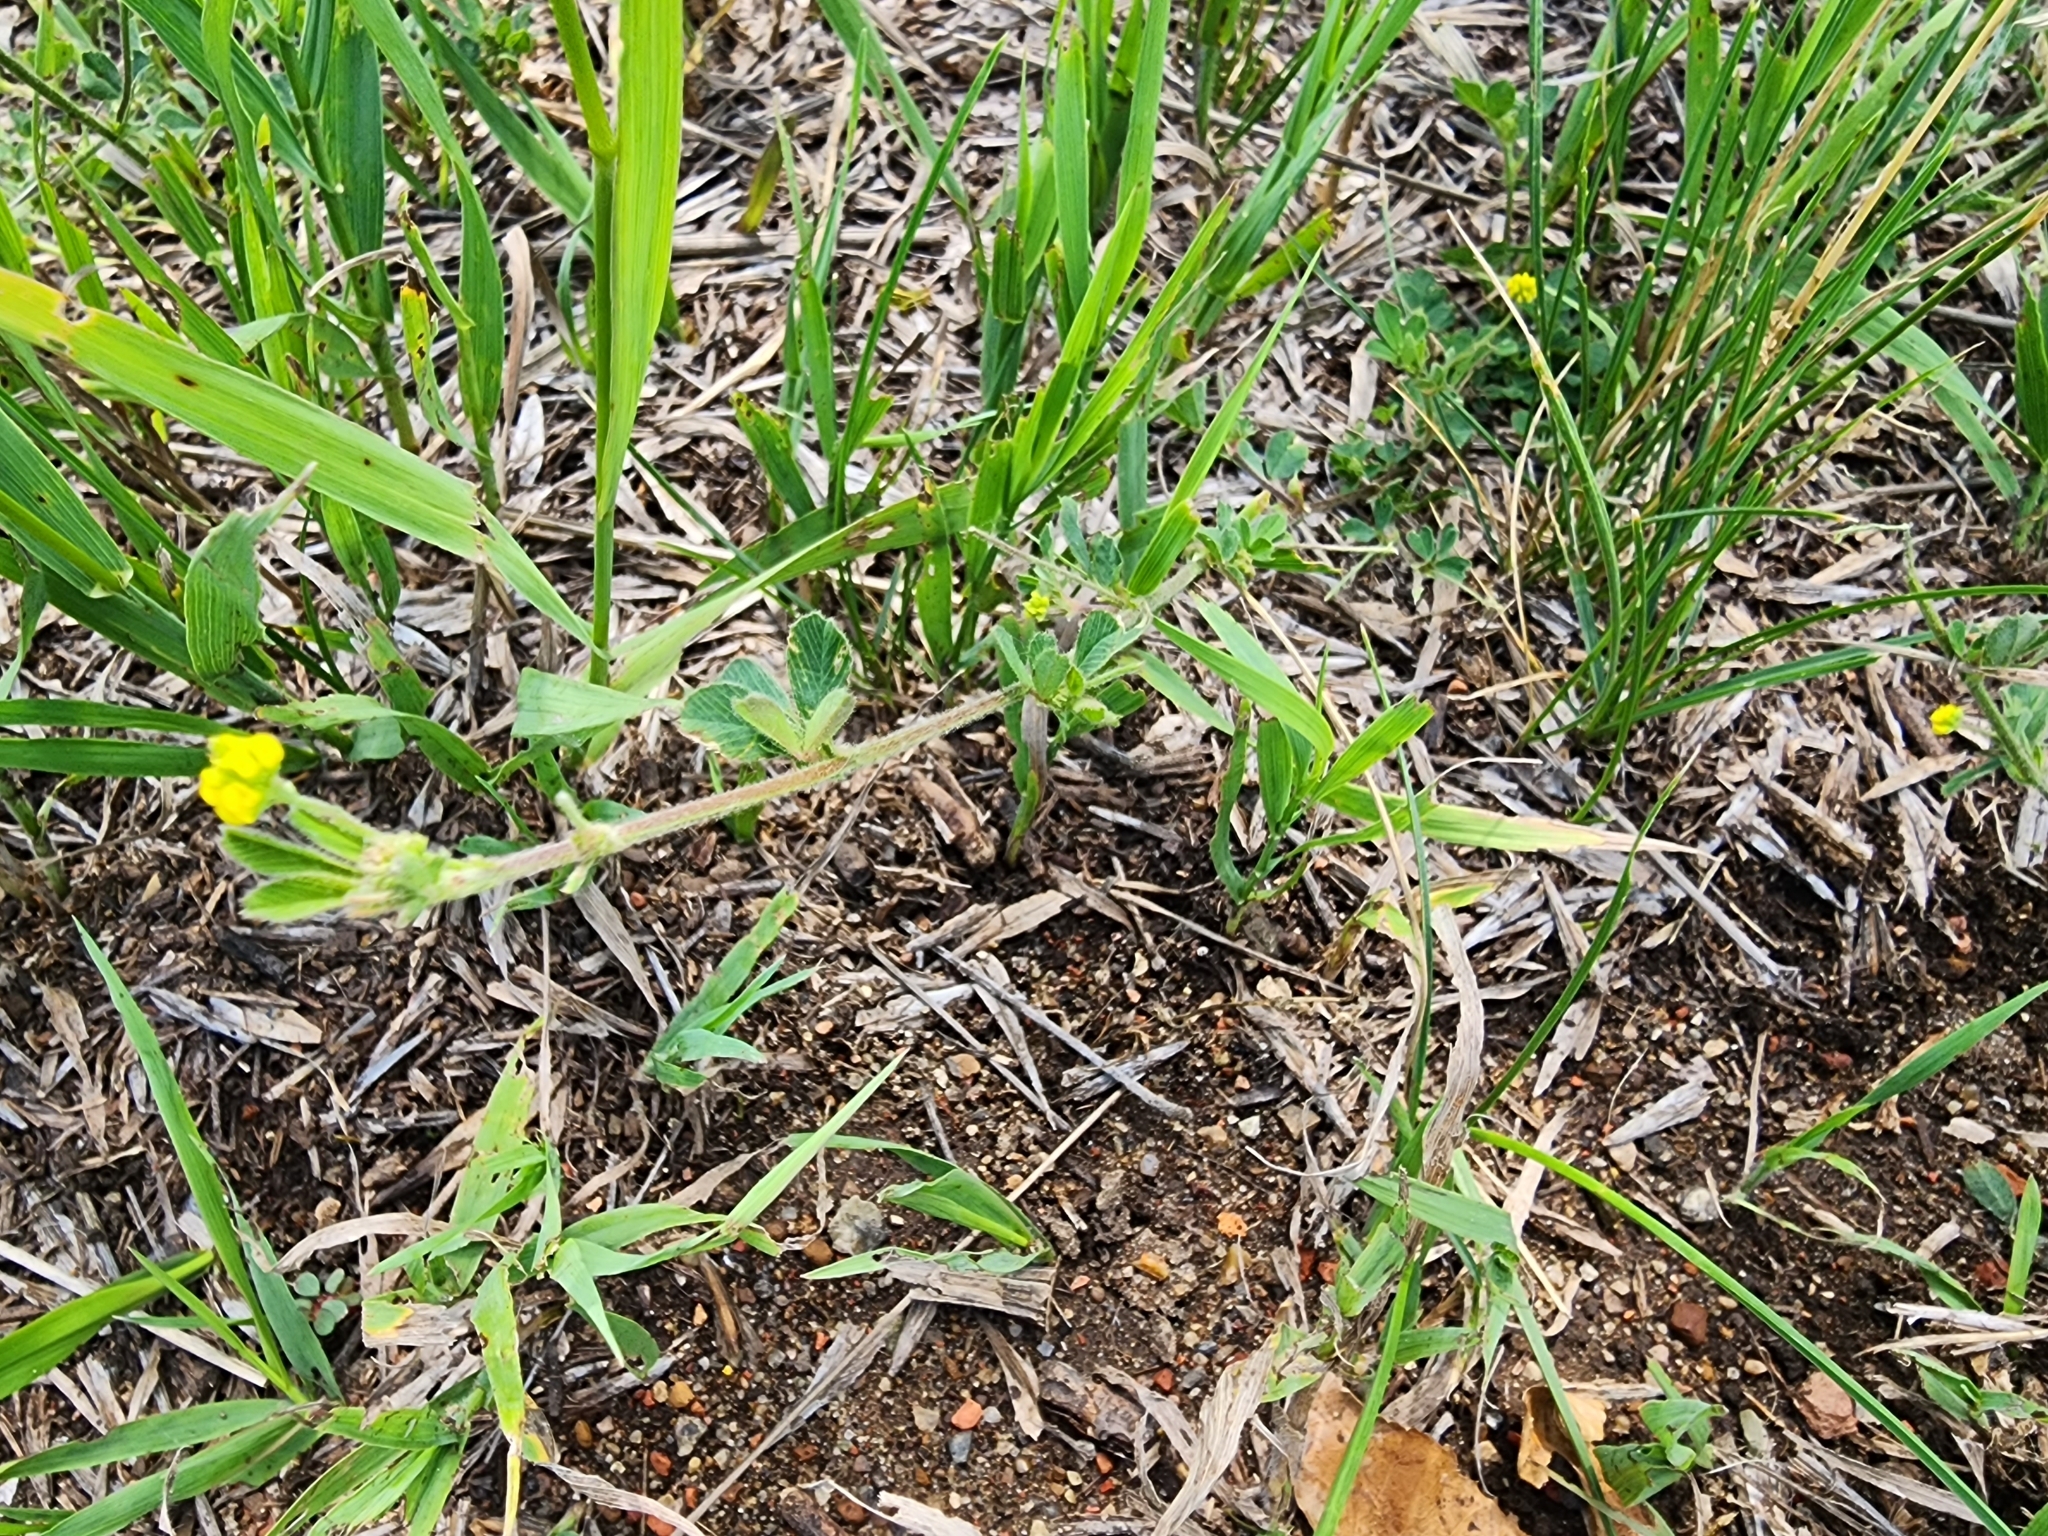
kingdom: Plantae
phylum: Tracheophyta
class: Magnoliopsida
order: Fabales
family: Fabaceae
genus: Medicago
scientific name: Medicago lupulina
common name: Black medick
